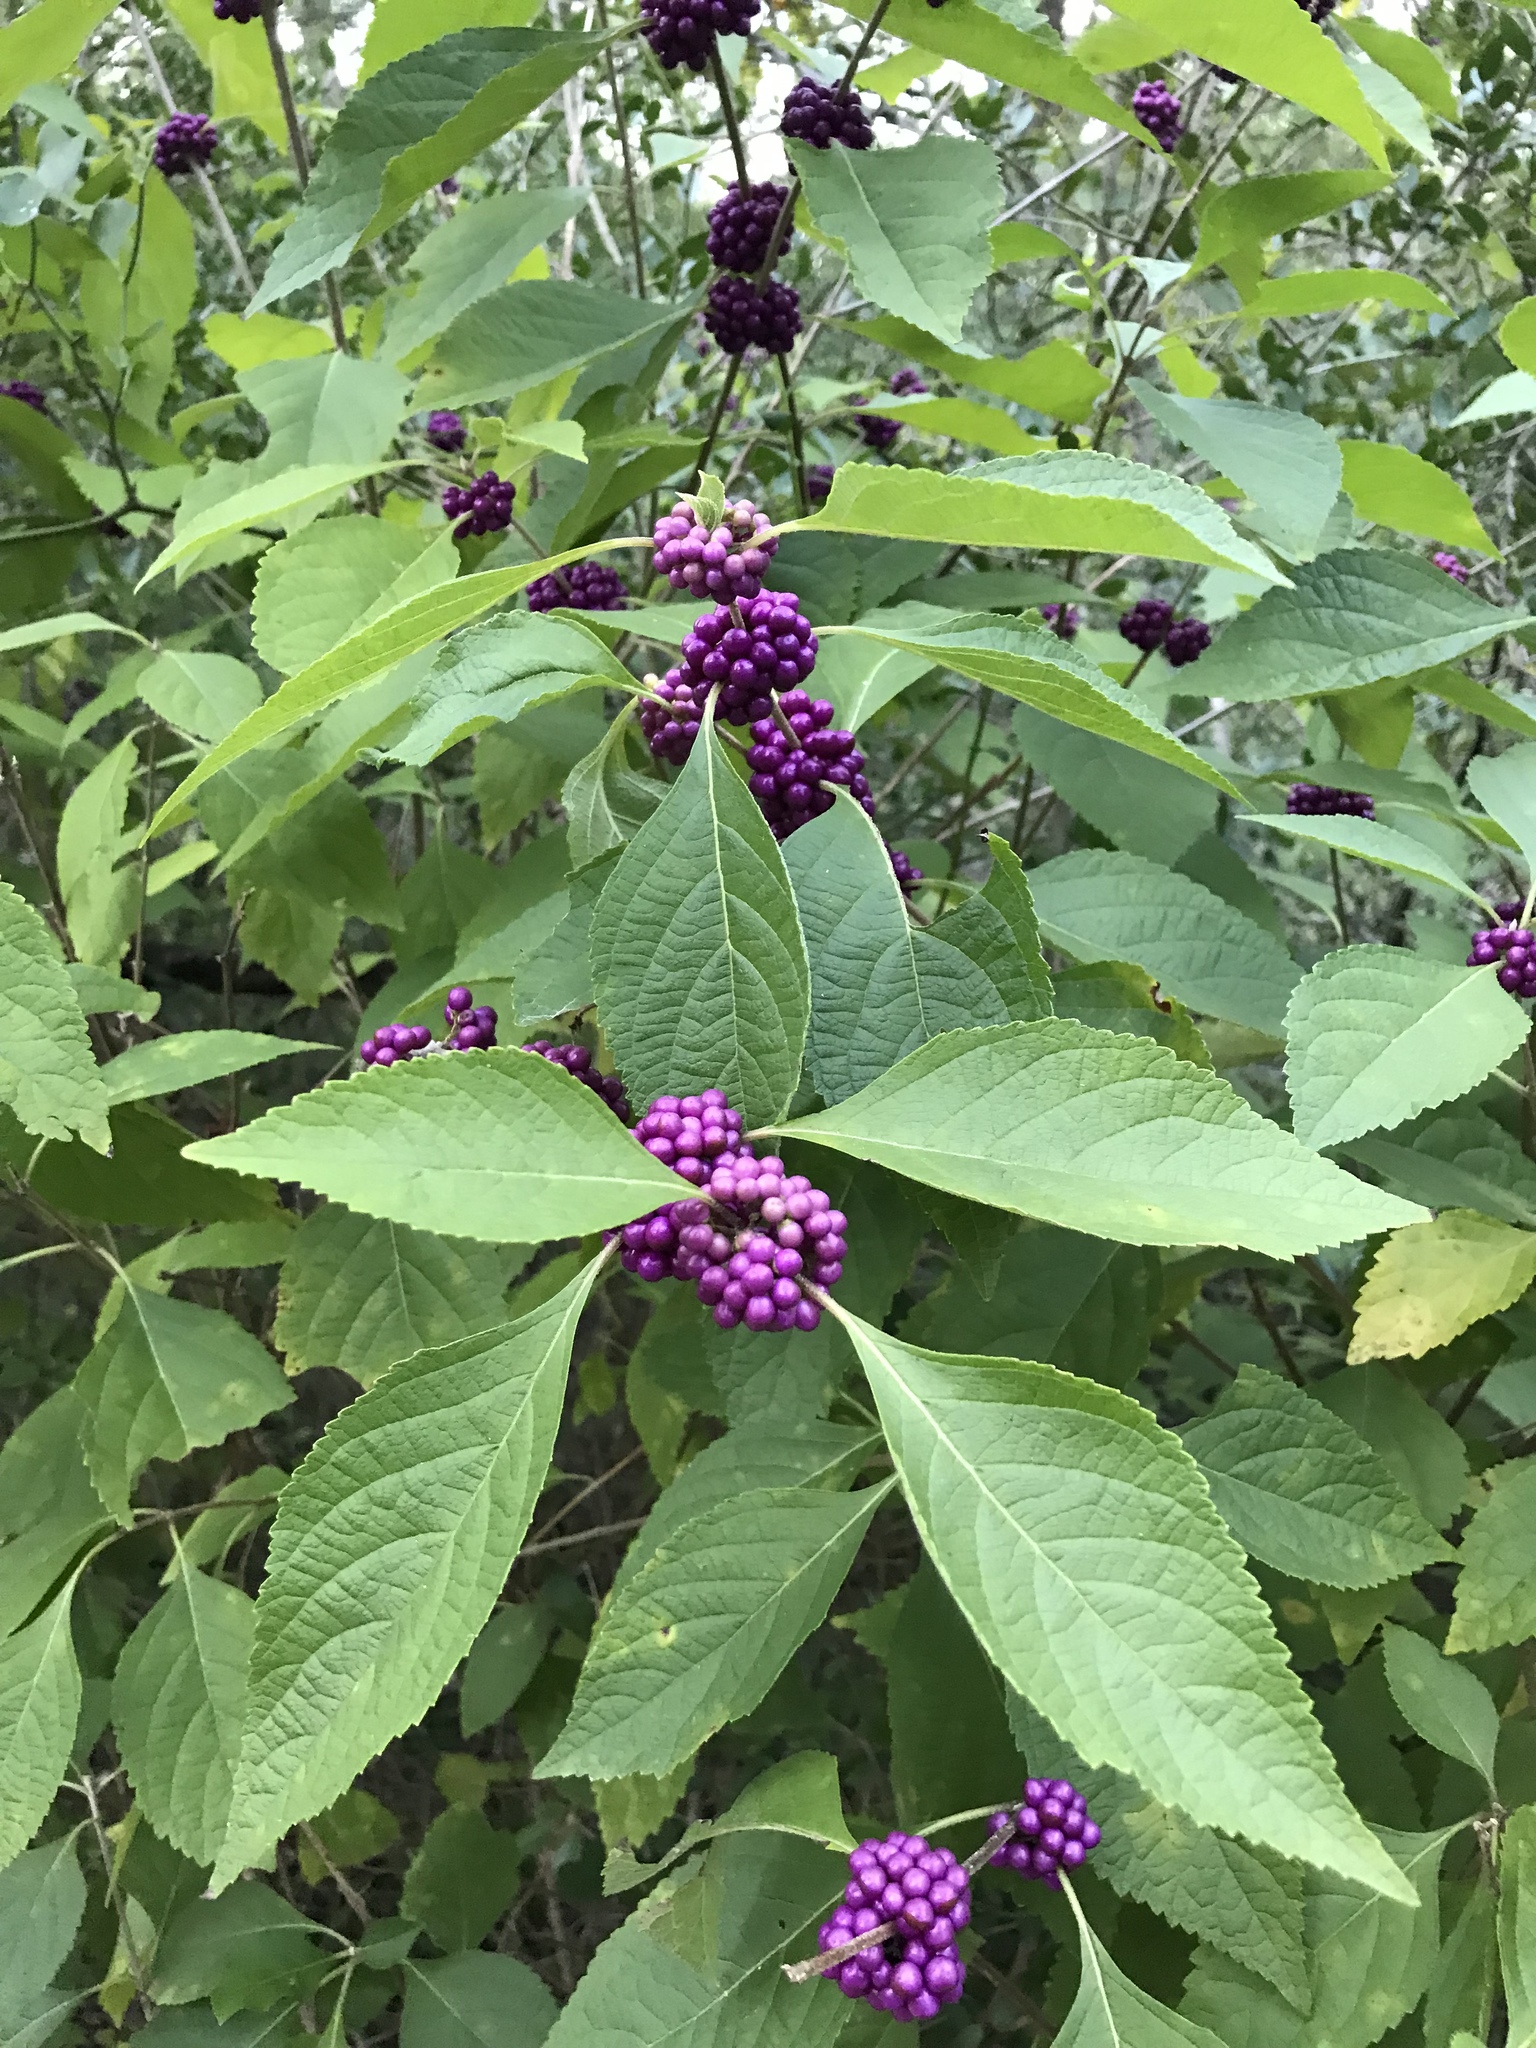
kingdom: Plantae
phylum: Tracheophyta
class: Magnoliopsida
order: Lamiales
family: Lamiaceae
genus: Callicarpa
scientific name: Callicarpa americana
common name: American beautyberry
